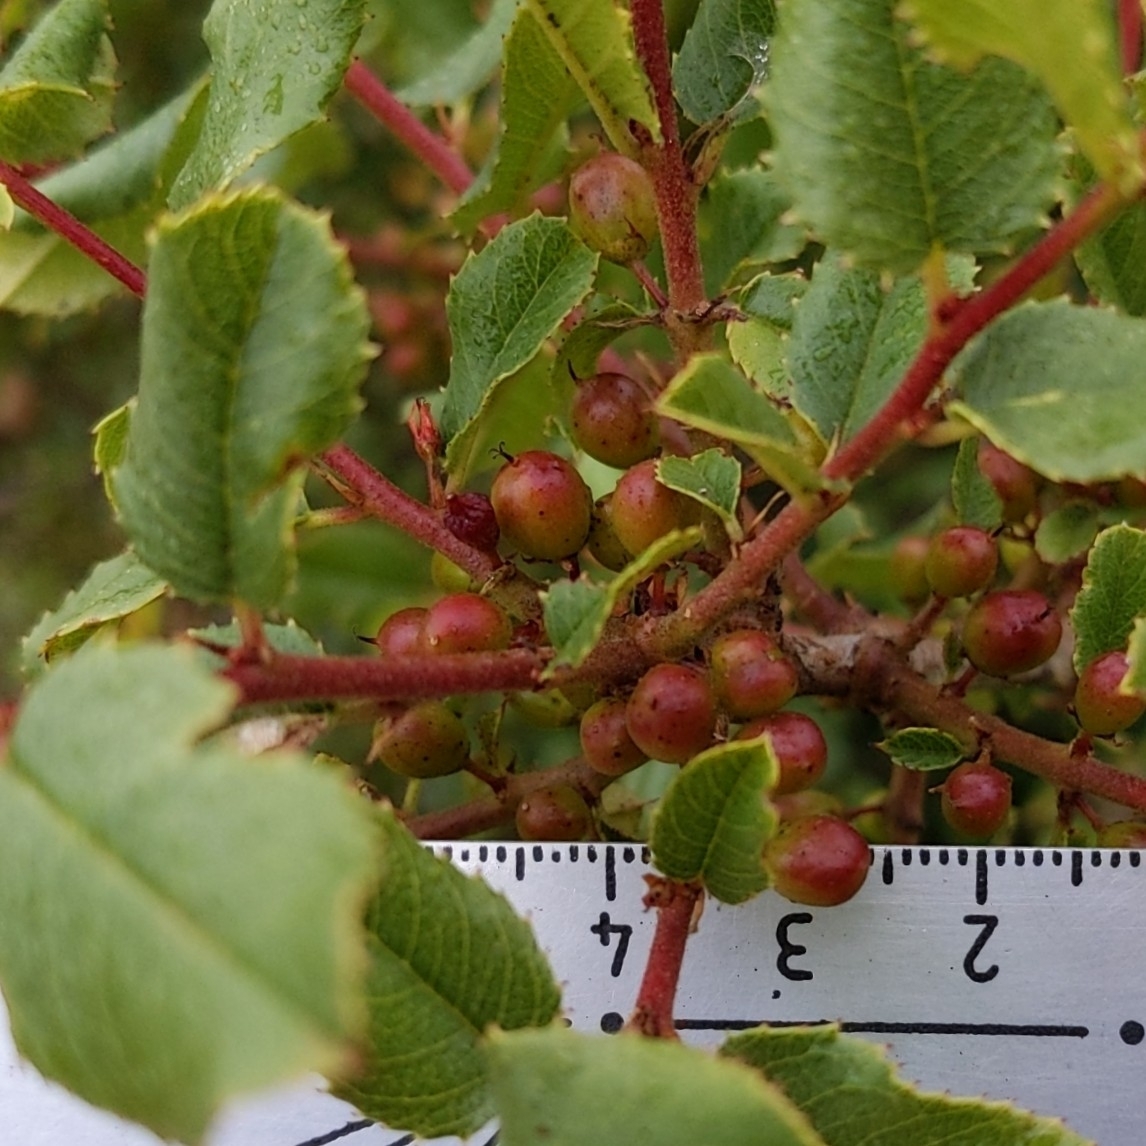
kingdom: Plantae
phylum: Tracheophyta
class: Magnoliopsida
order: Rosales
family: Rhamnaceae
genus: Endotropis
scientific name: Endotropis crocea
